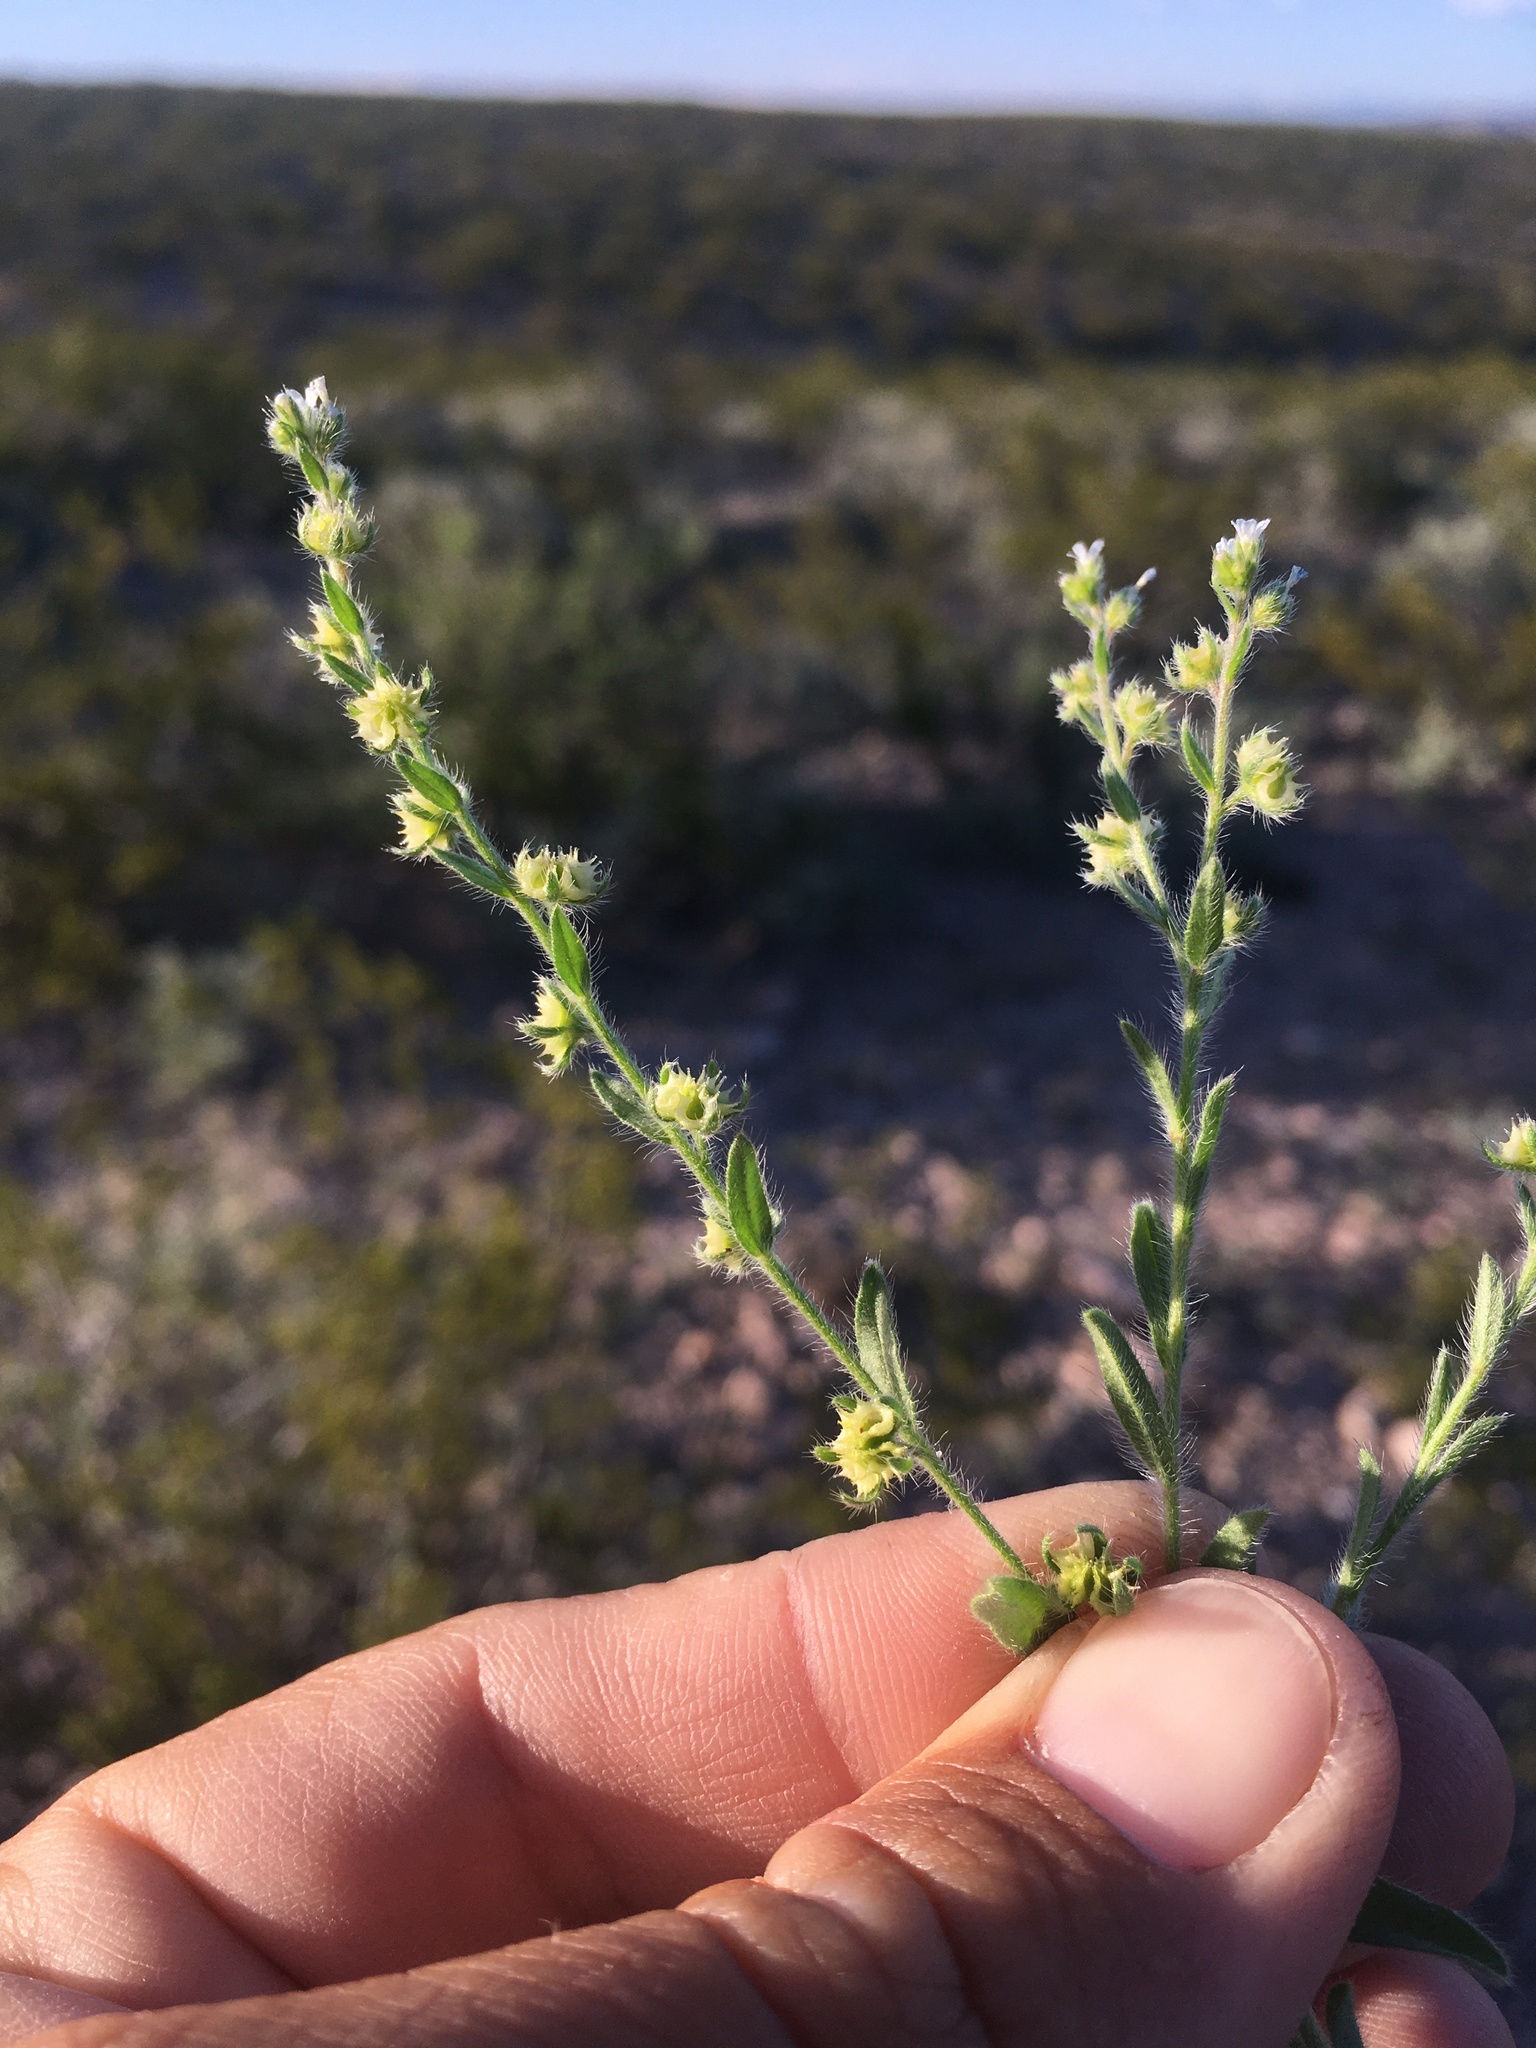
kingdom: Plantae
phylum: Tracheophyta
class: Magnoliopsida
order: Boraginales
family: Boraginaceae
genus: Lappula
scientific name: Lappula occidentalis
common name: Western stickseed
